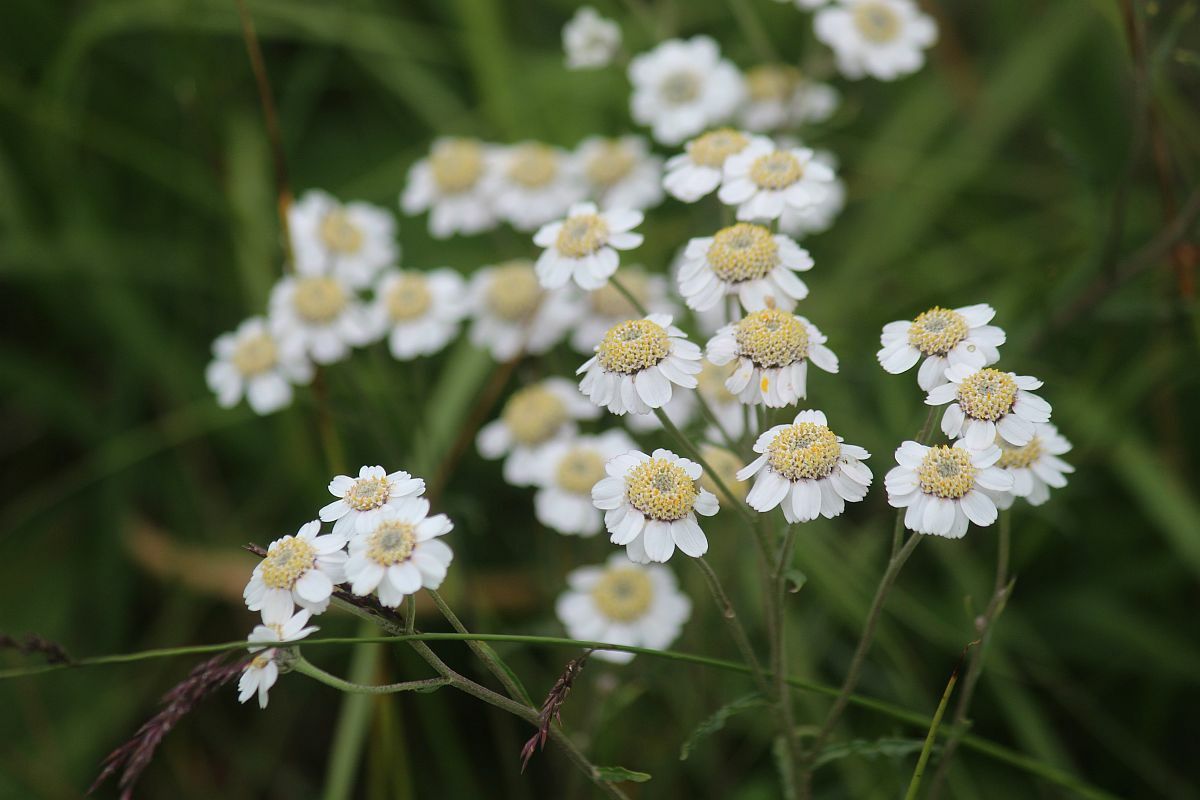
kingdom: Plantae
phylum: Tracheophyta
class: Magnoliopsida
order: Asterales
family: Asteraceae
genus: Achillea
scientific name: Achillea ptarmica
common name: Sneezeweed
